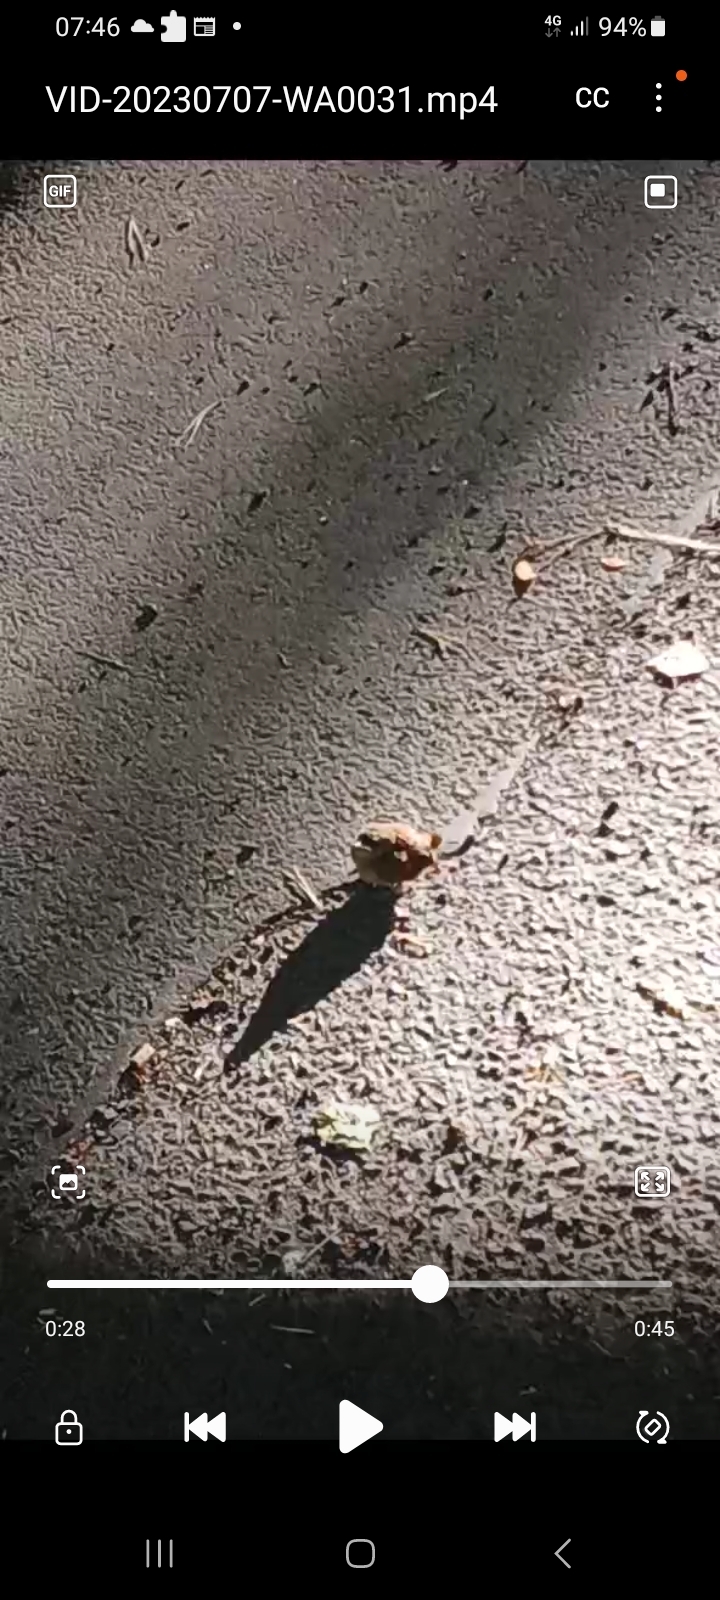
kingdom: Animalia
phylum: Chordata
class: Aves
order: Passeriformes
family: Troglodytidae
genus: Troglodytes
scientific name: Troglodytes troglodytes
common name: Eurasian wren
